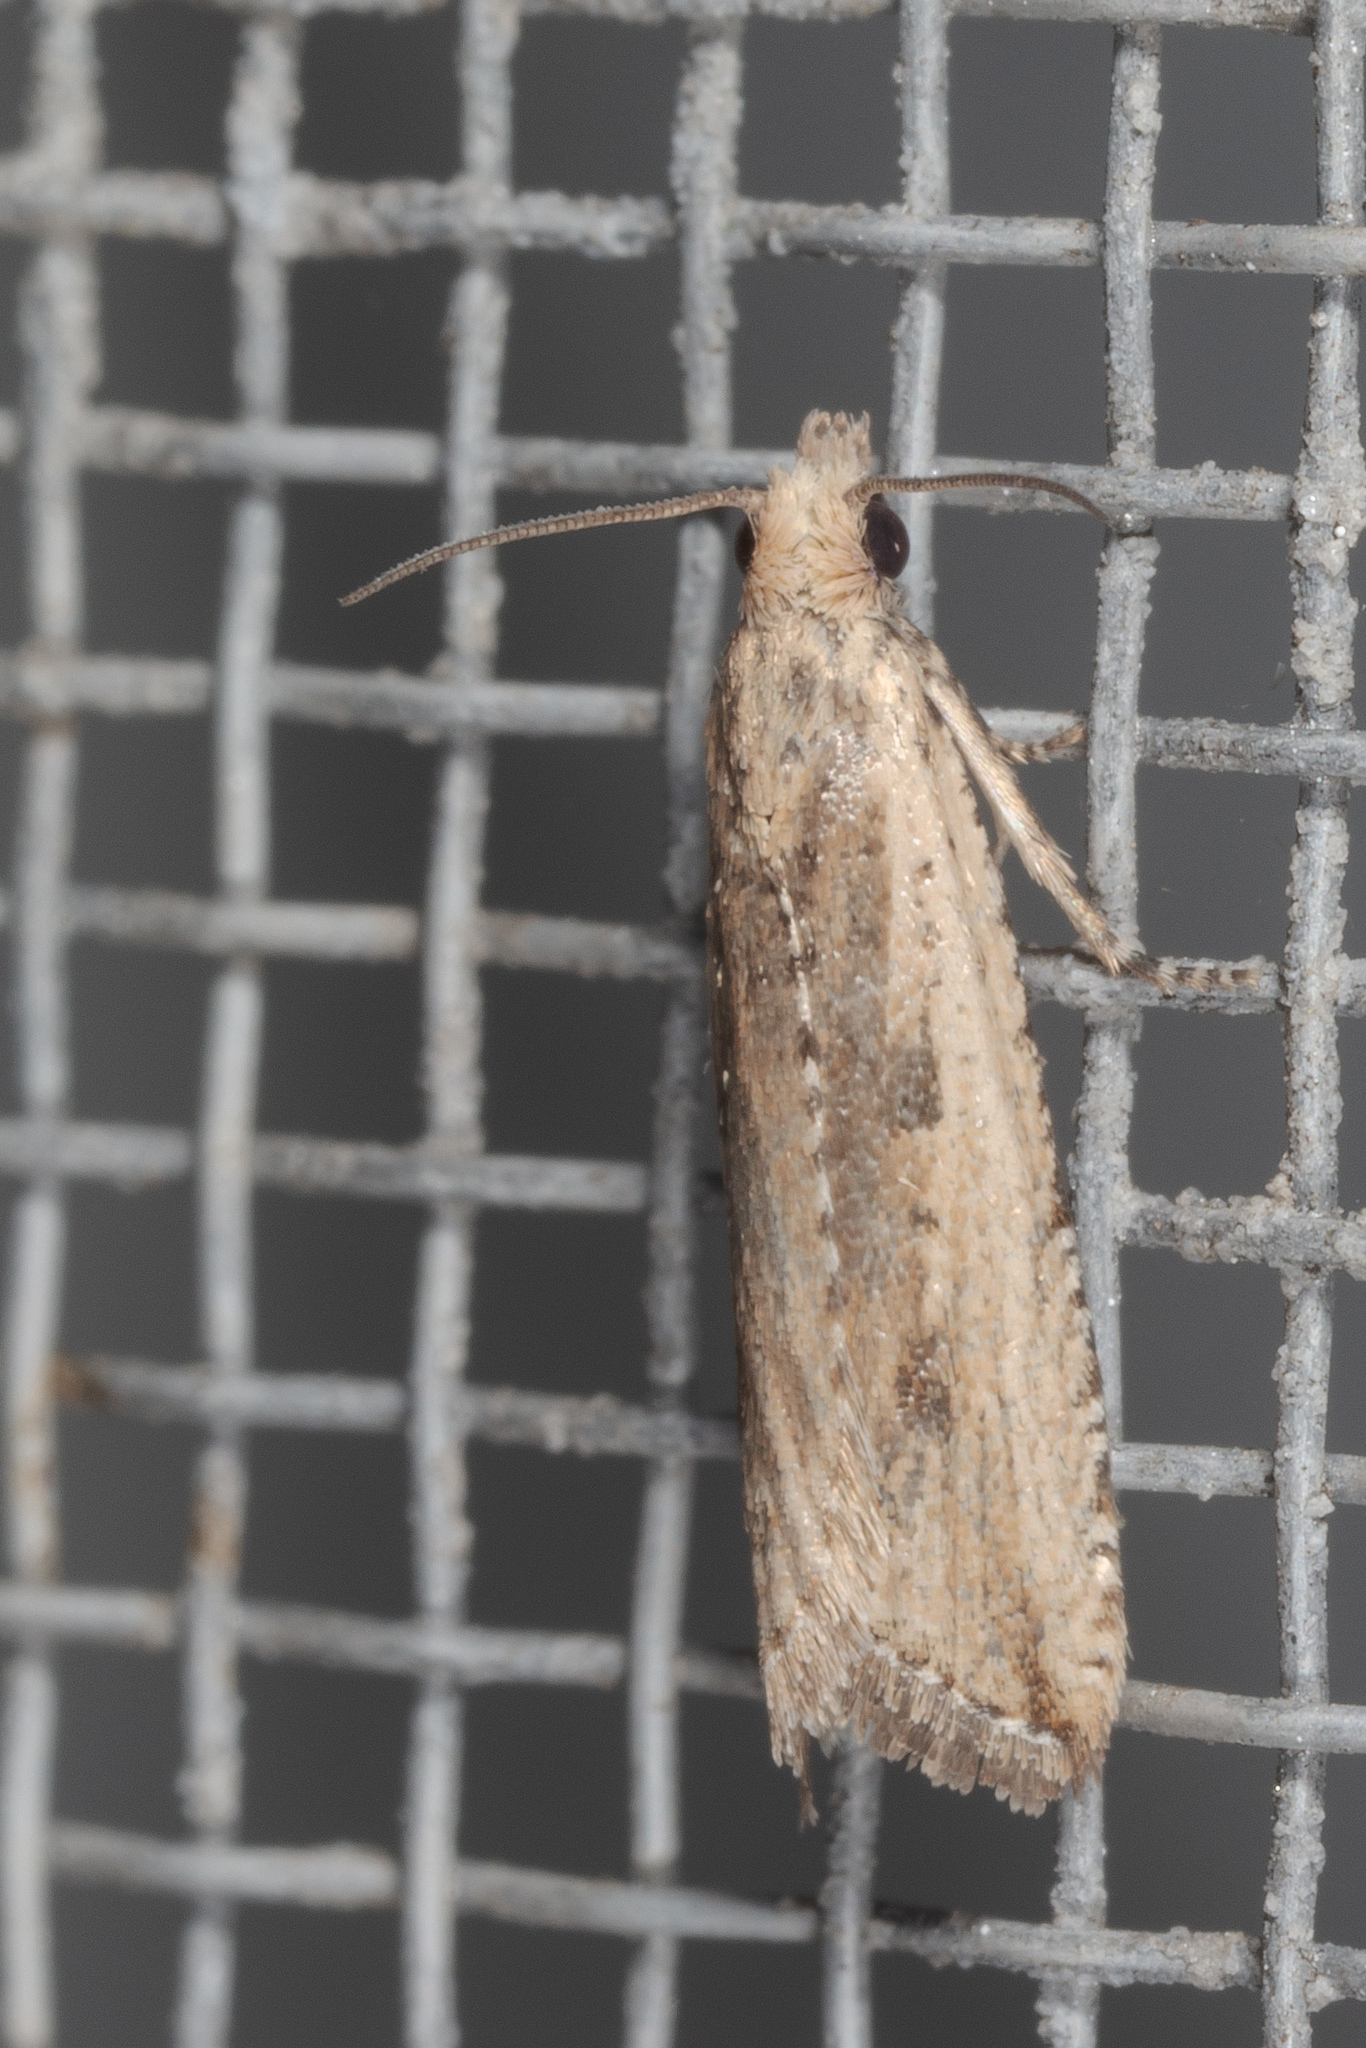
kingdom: Animalia
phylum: Arthropoda
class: Insecta
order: Lepidoptera
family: Tortricidae
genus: Bactra
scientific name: Bactra verutana
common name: Javelin moth
